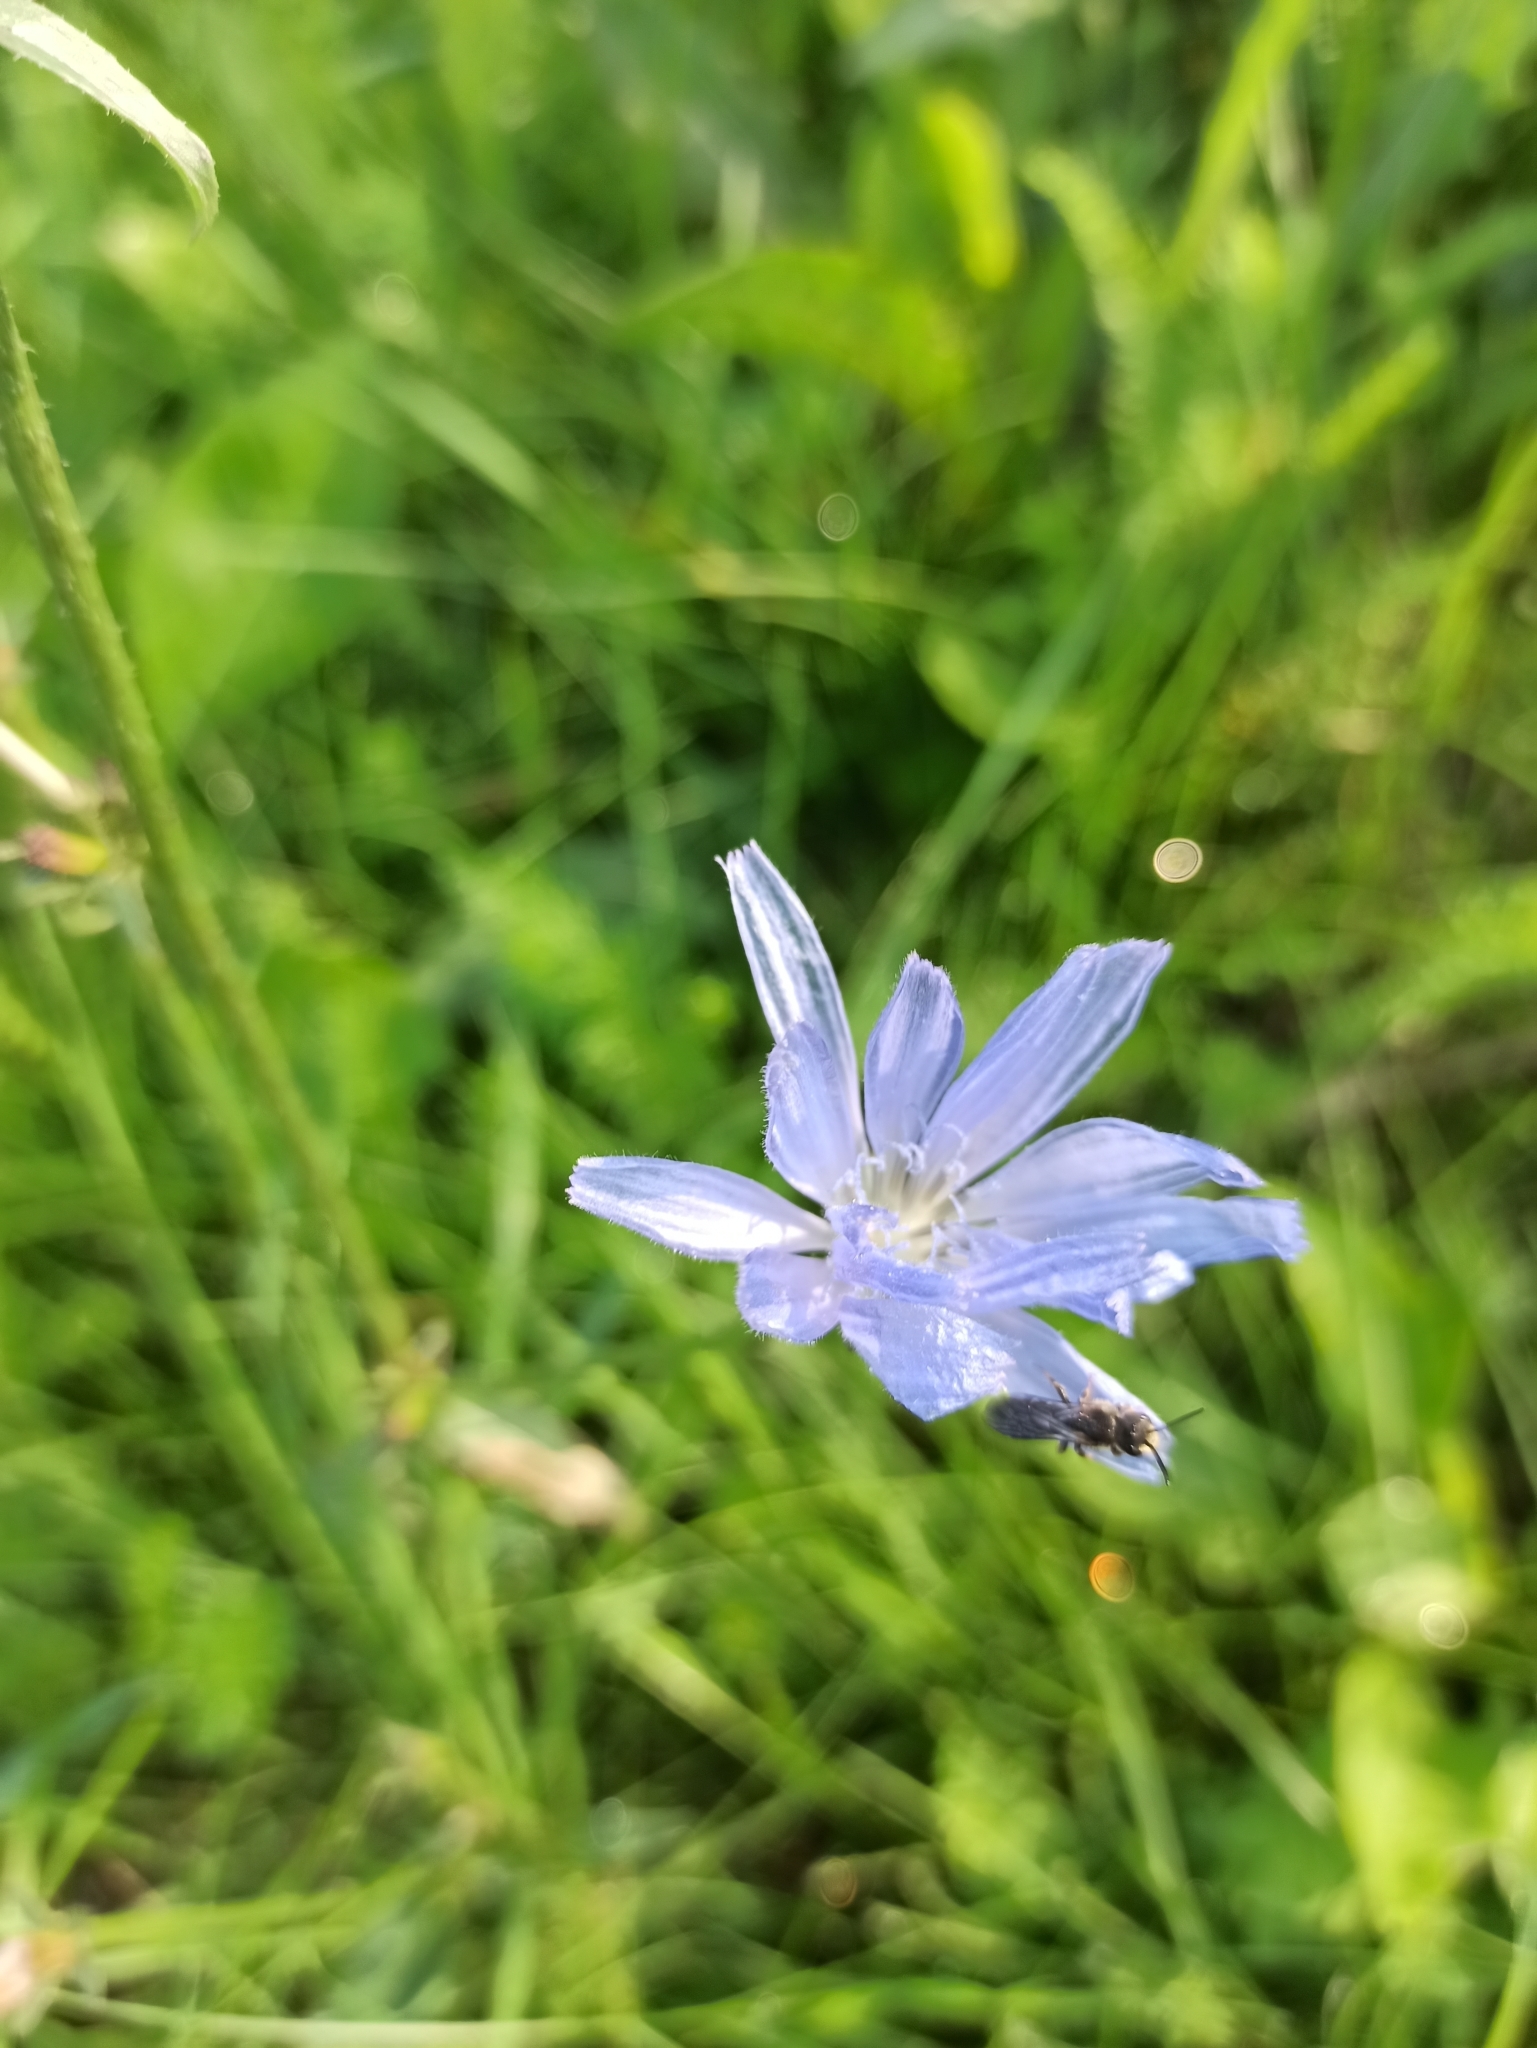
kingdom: Plantae
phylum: Tracheophyta
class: Magnoliopsida
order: Asterales
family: Asteraceae
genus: Cichorium
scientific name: Cichorium intybus
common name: Chicory
